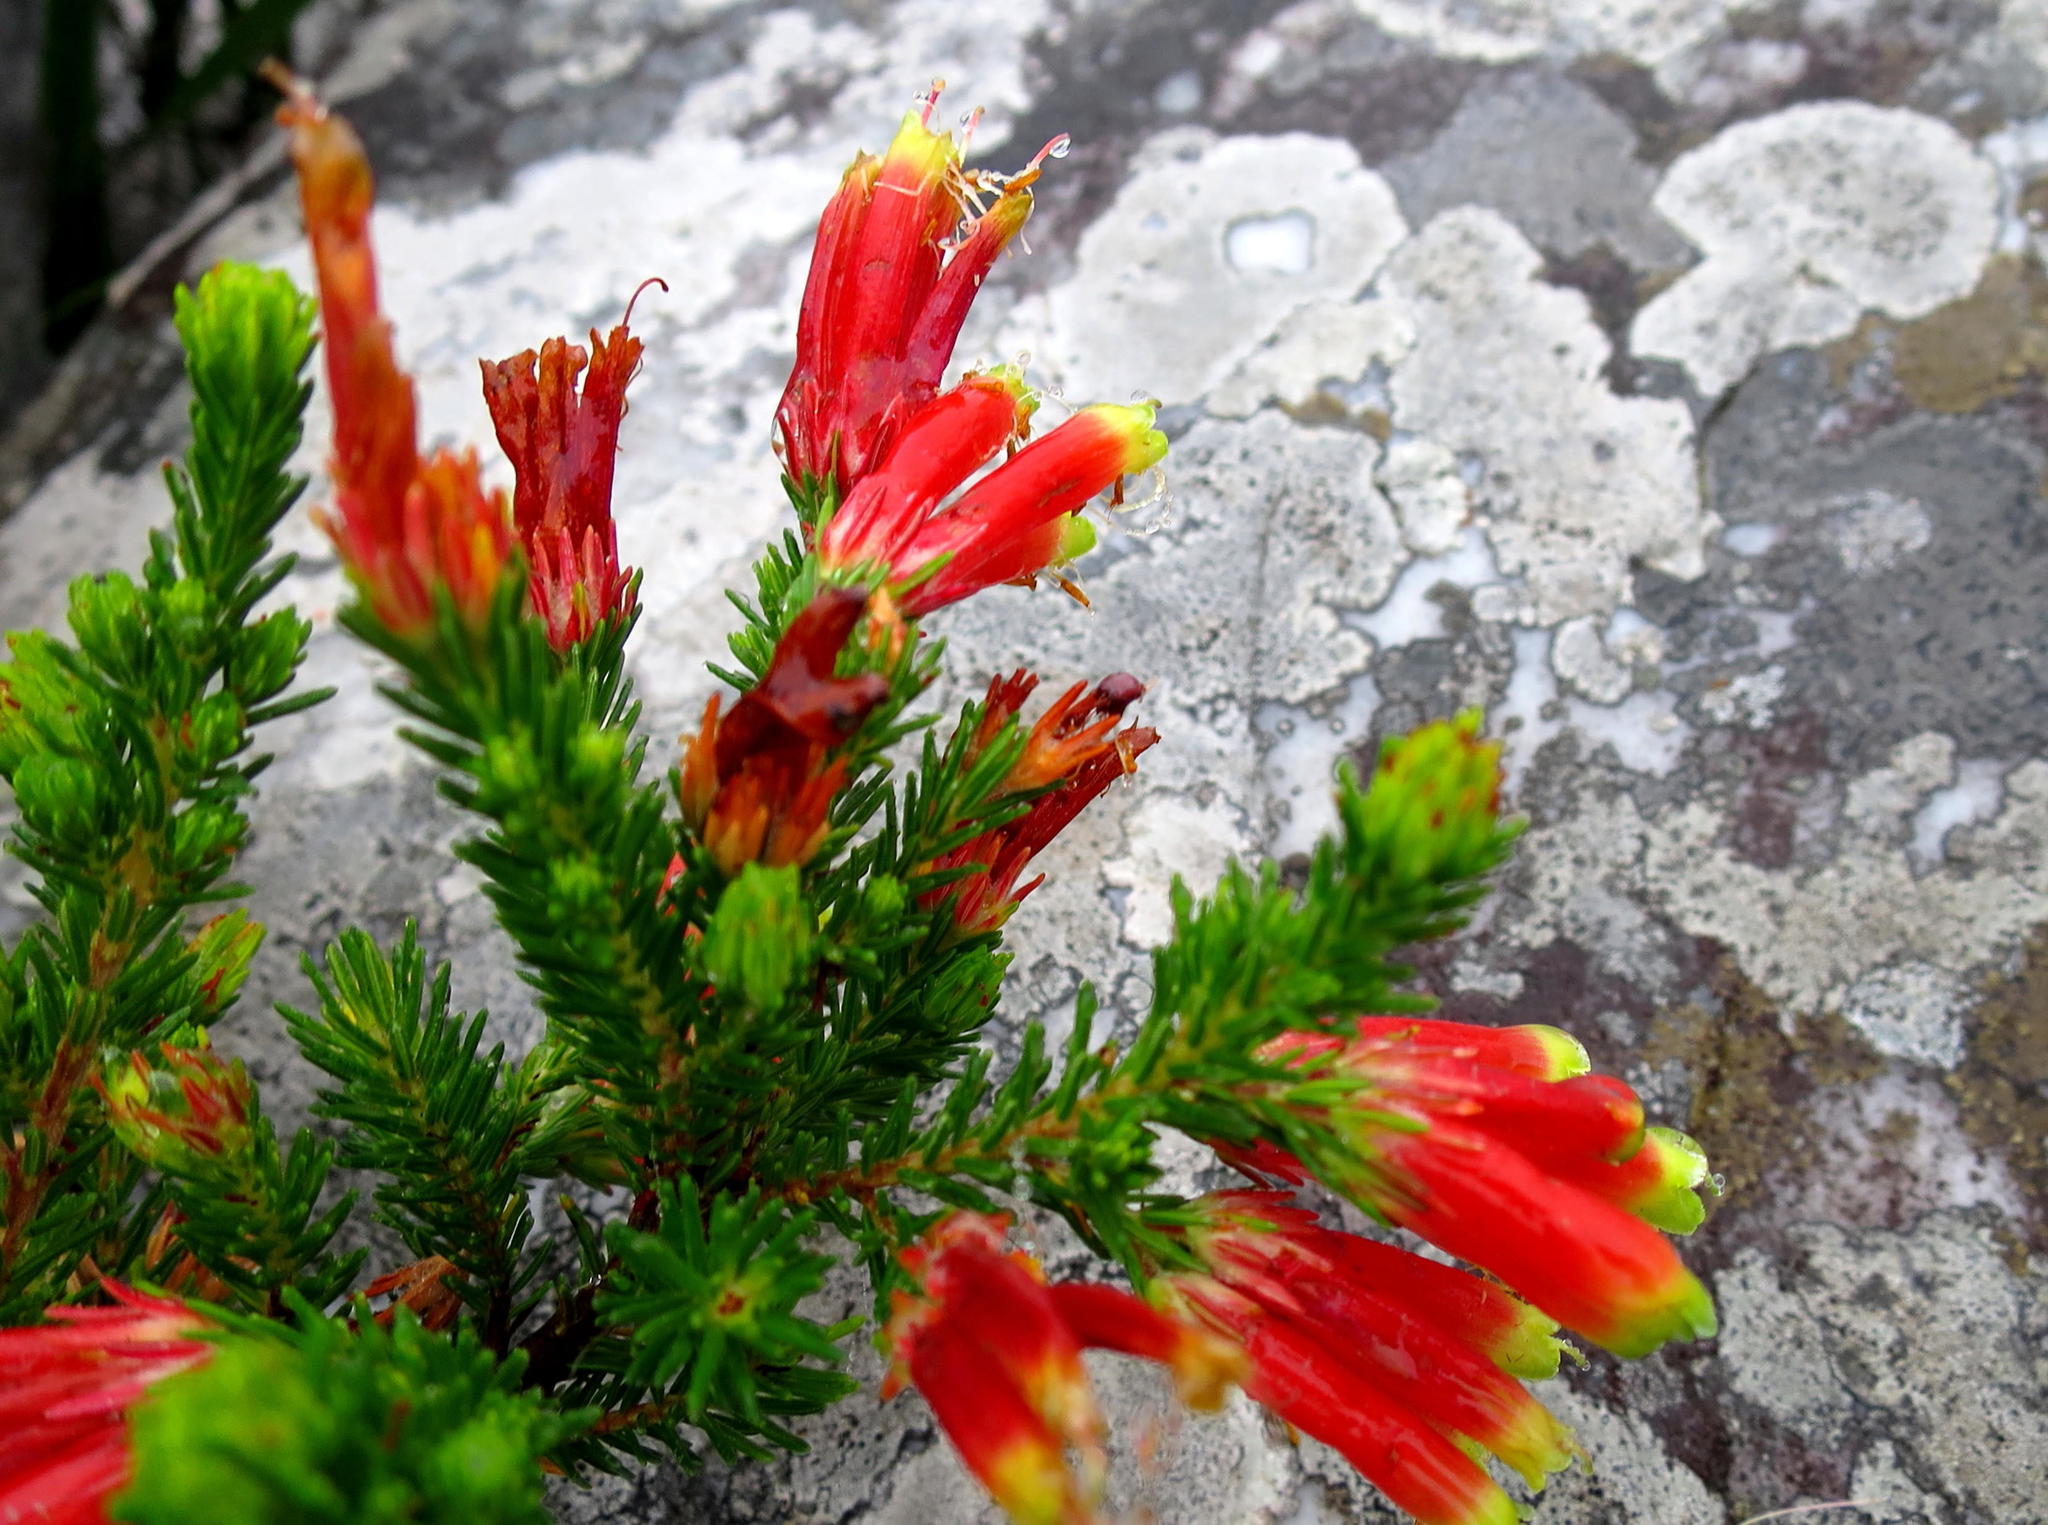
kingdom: Plantae
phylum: Tracheophyta
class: Magnoliopsida
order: Ericales
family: Ericaceae
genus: Erica
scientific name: Erica unicolor
